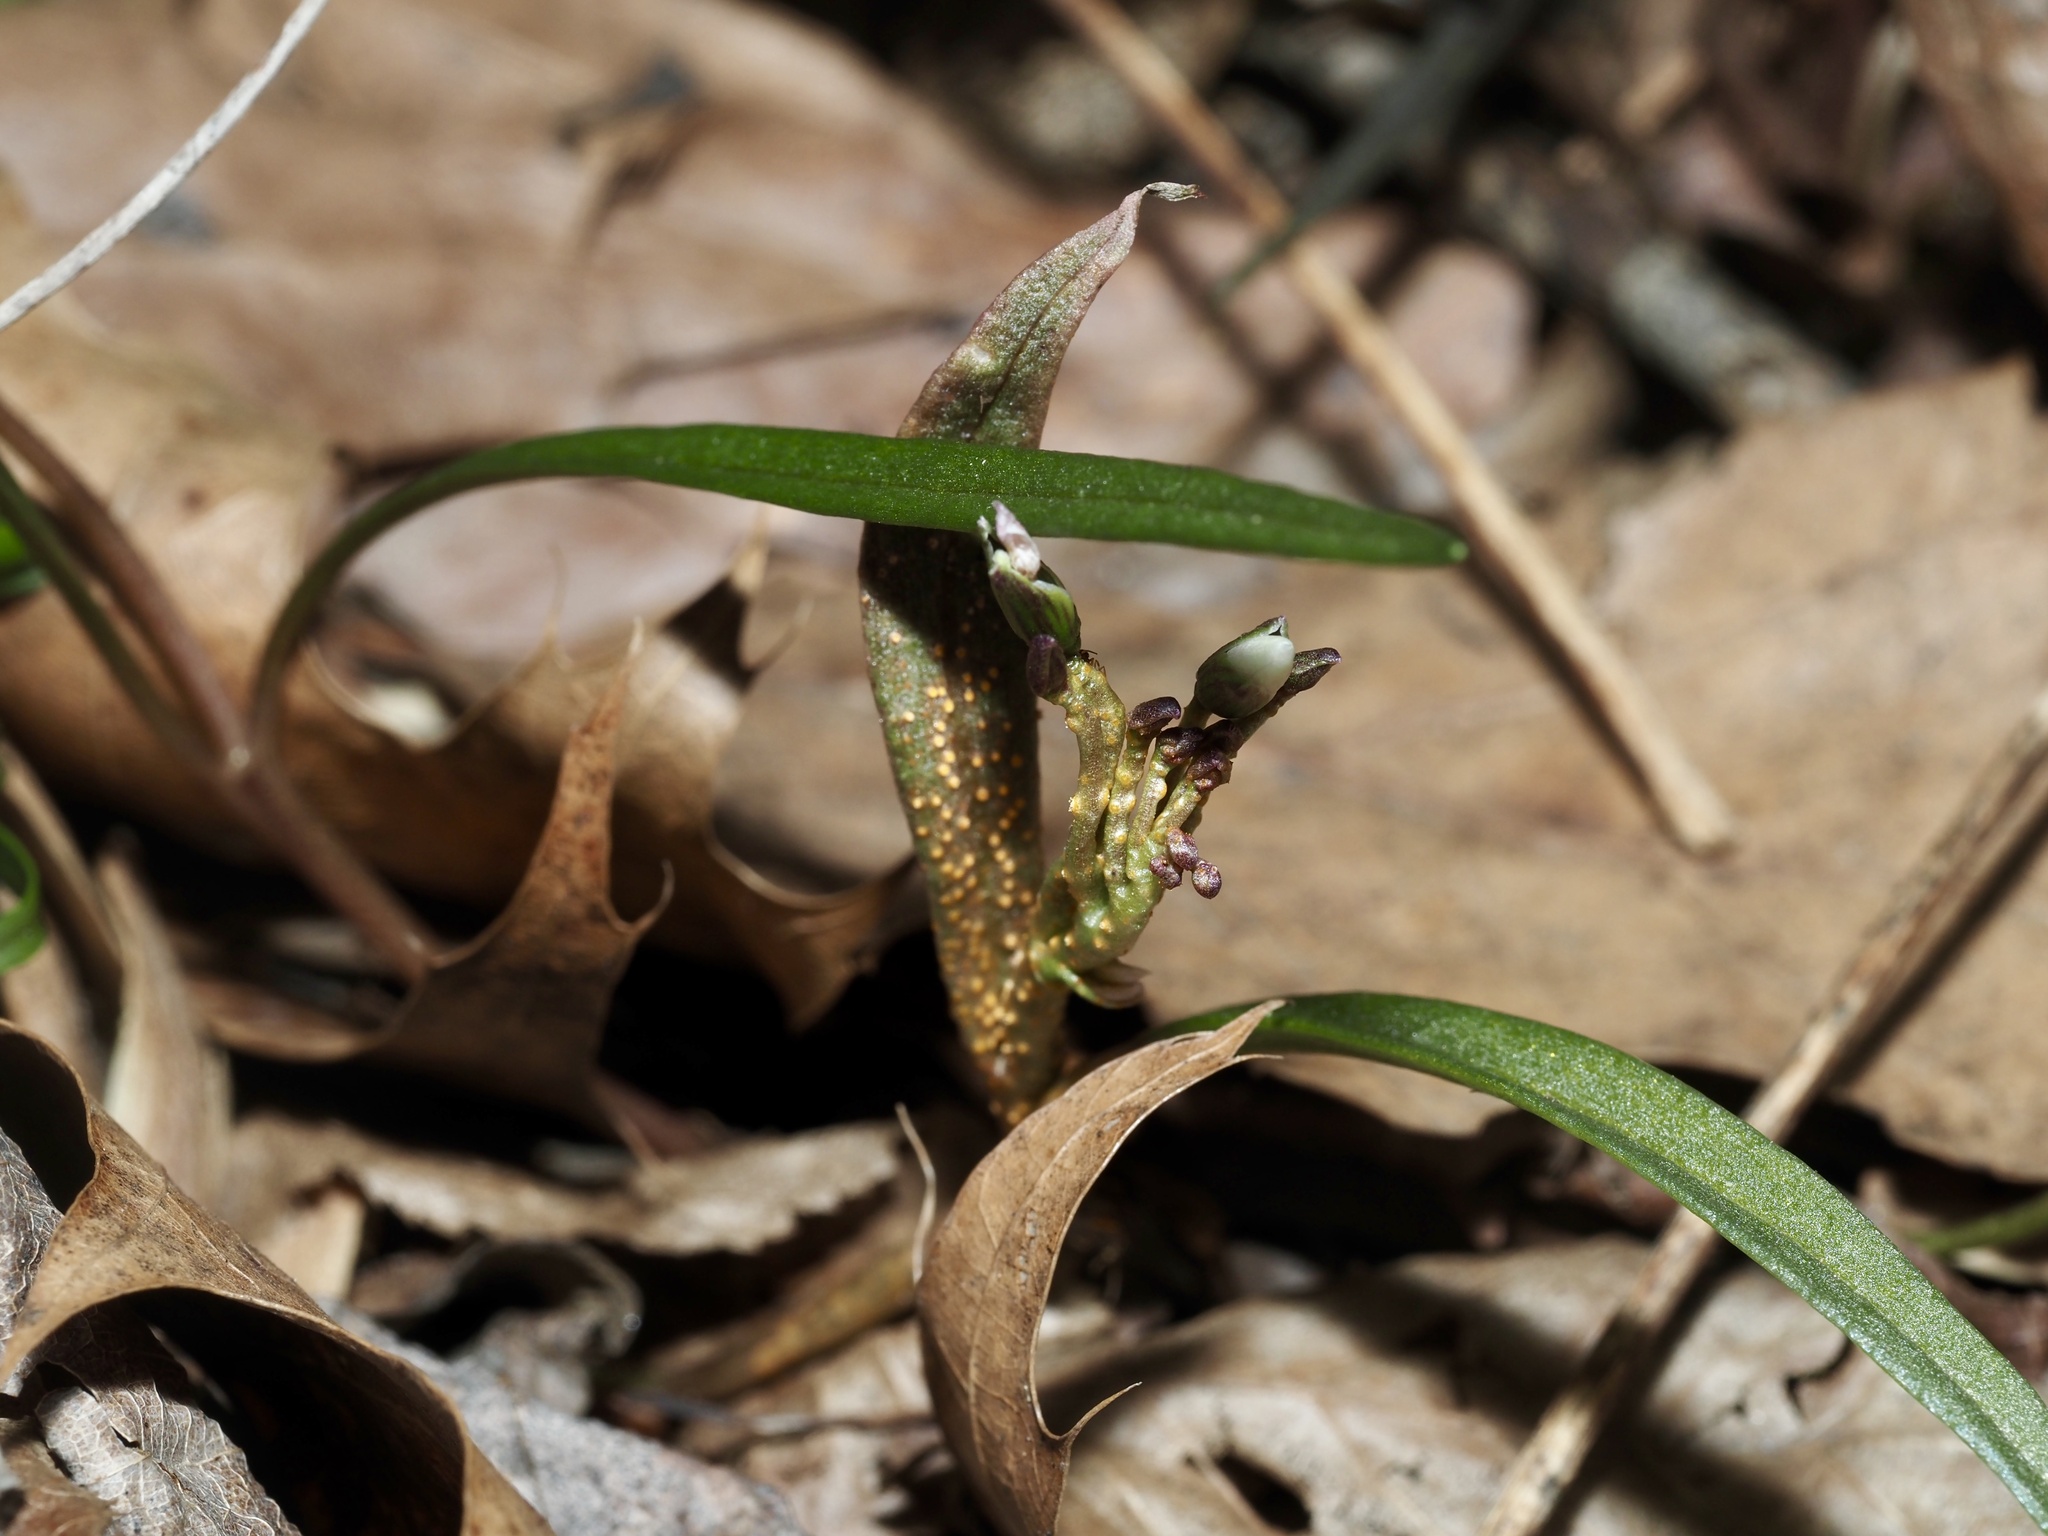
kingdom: Fungi
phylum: Basidiomycota
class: Pucciniomycetes
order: Pucciniales
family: Pucciniaceae
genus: Puccinia
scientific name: Puccinia mariae-wilsoniae
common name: Spring beauty rust
